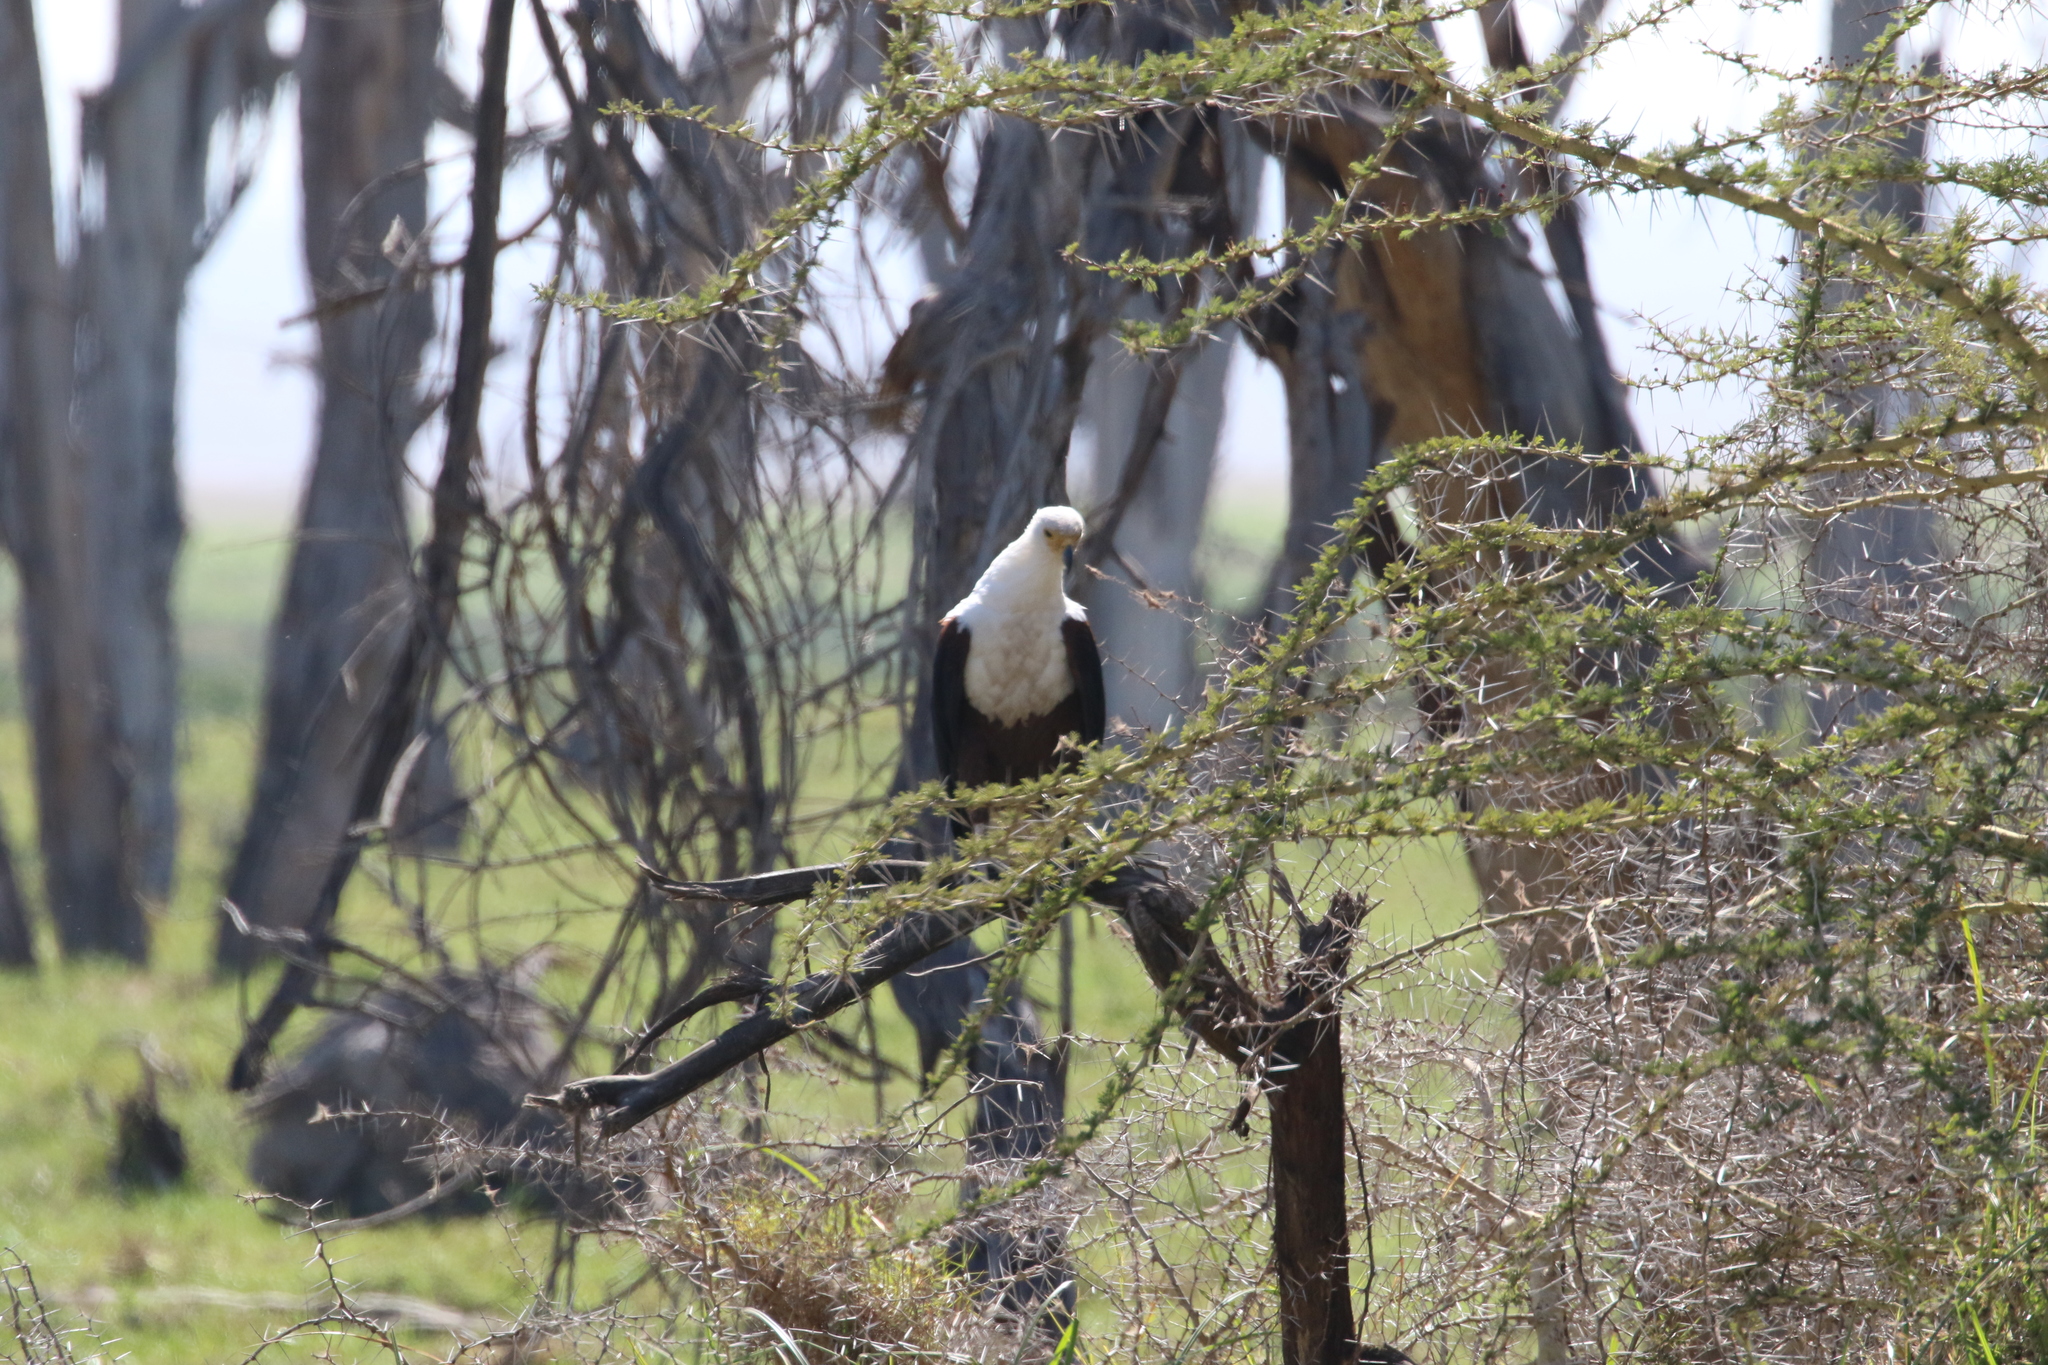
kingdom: Animalia
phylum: Chordata
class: Aves
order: Accipitriformes
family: Accipitridae
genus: Haliaeetus
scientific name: Haliaeetus vocifer
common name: African fish eagle
